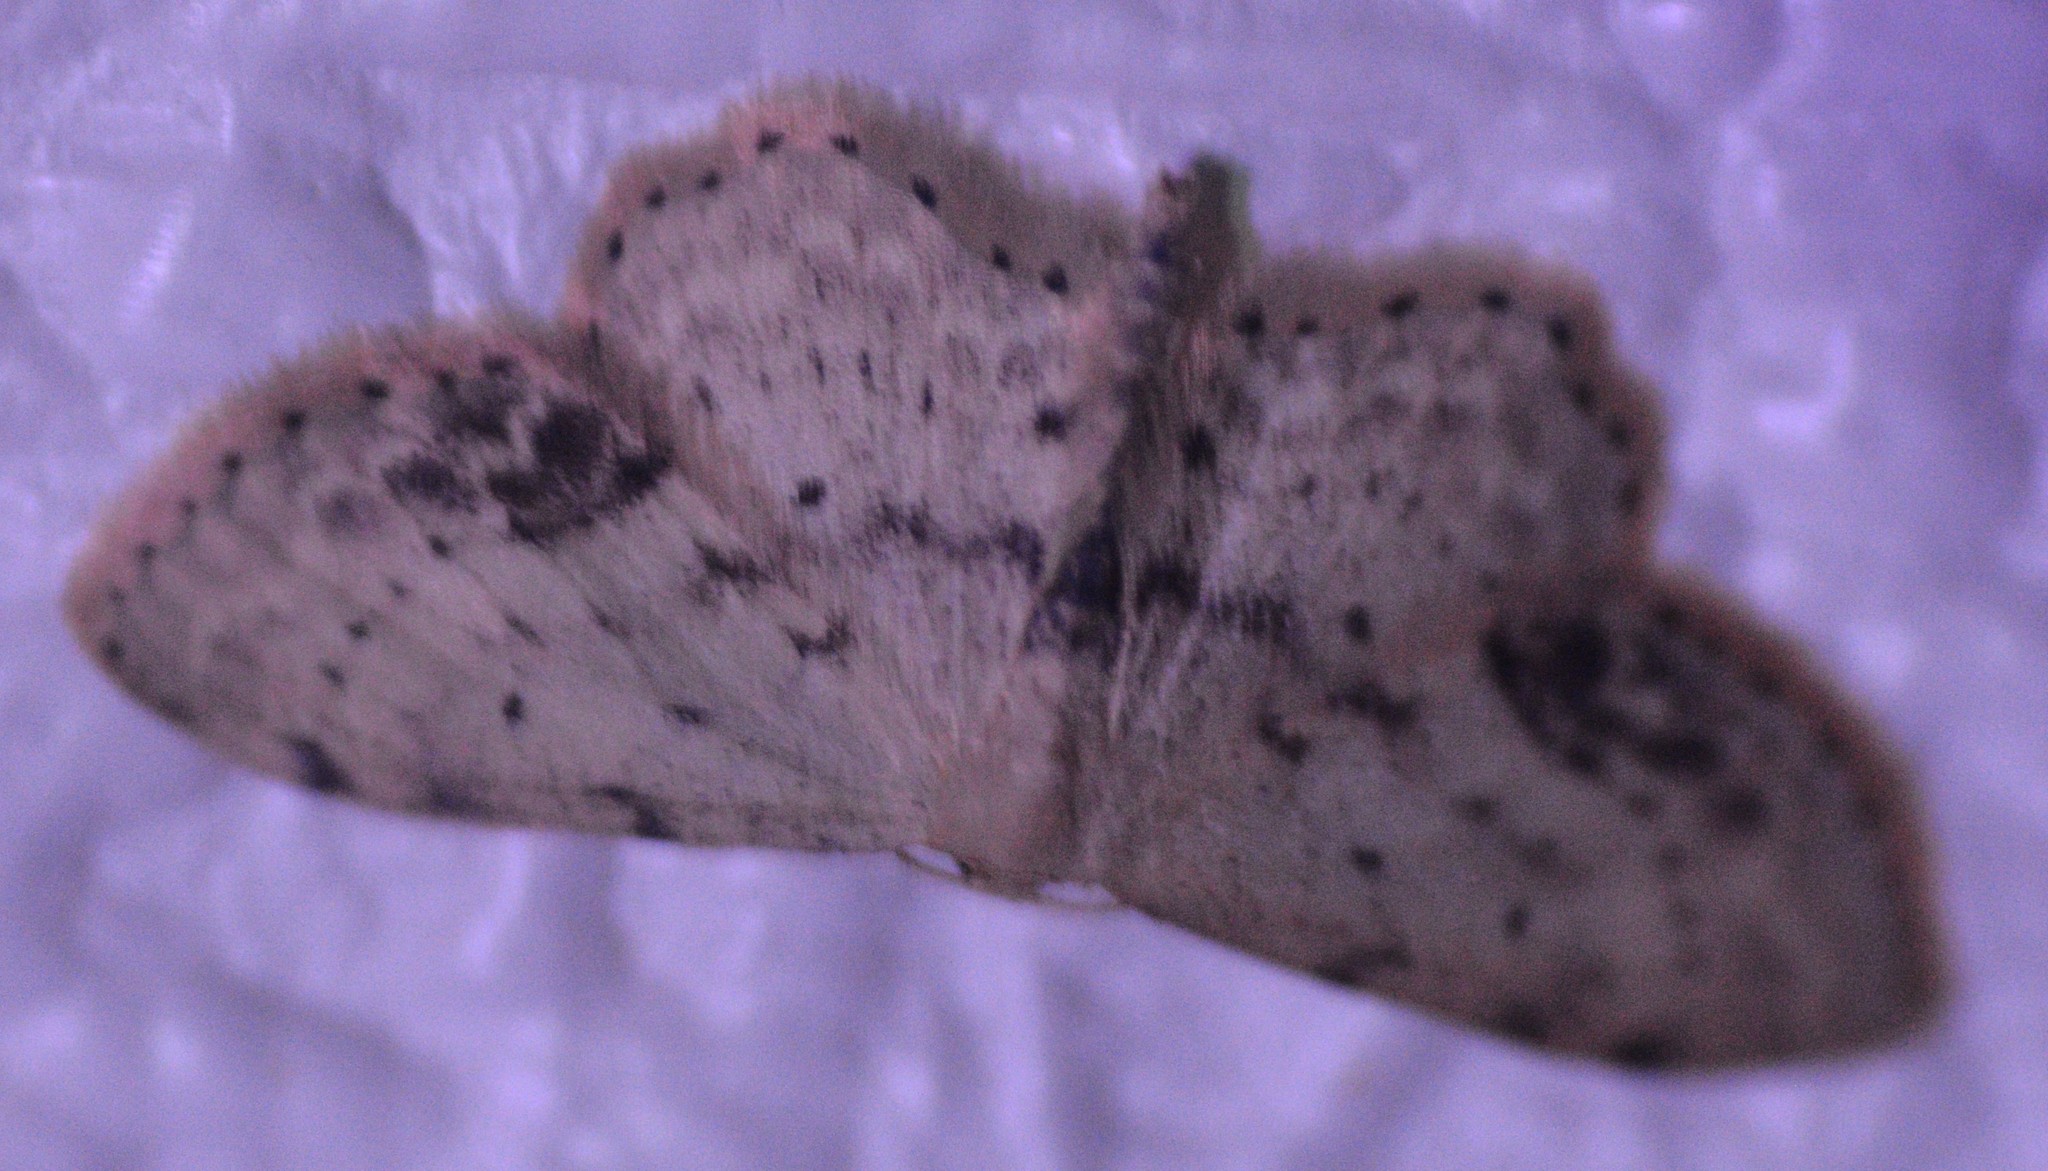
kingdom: Animalia
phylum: Arthropoda
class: Insecta
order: Lepidoptera
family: Geometridae
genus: Idaea
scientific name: Idaea dimidiata
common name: Single-dotted wave
